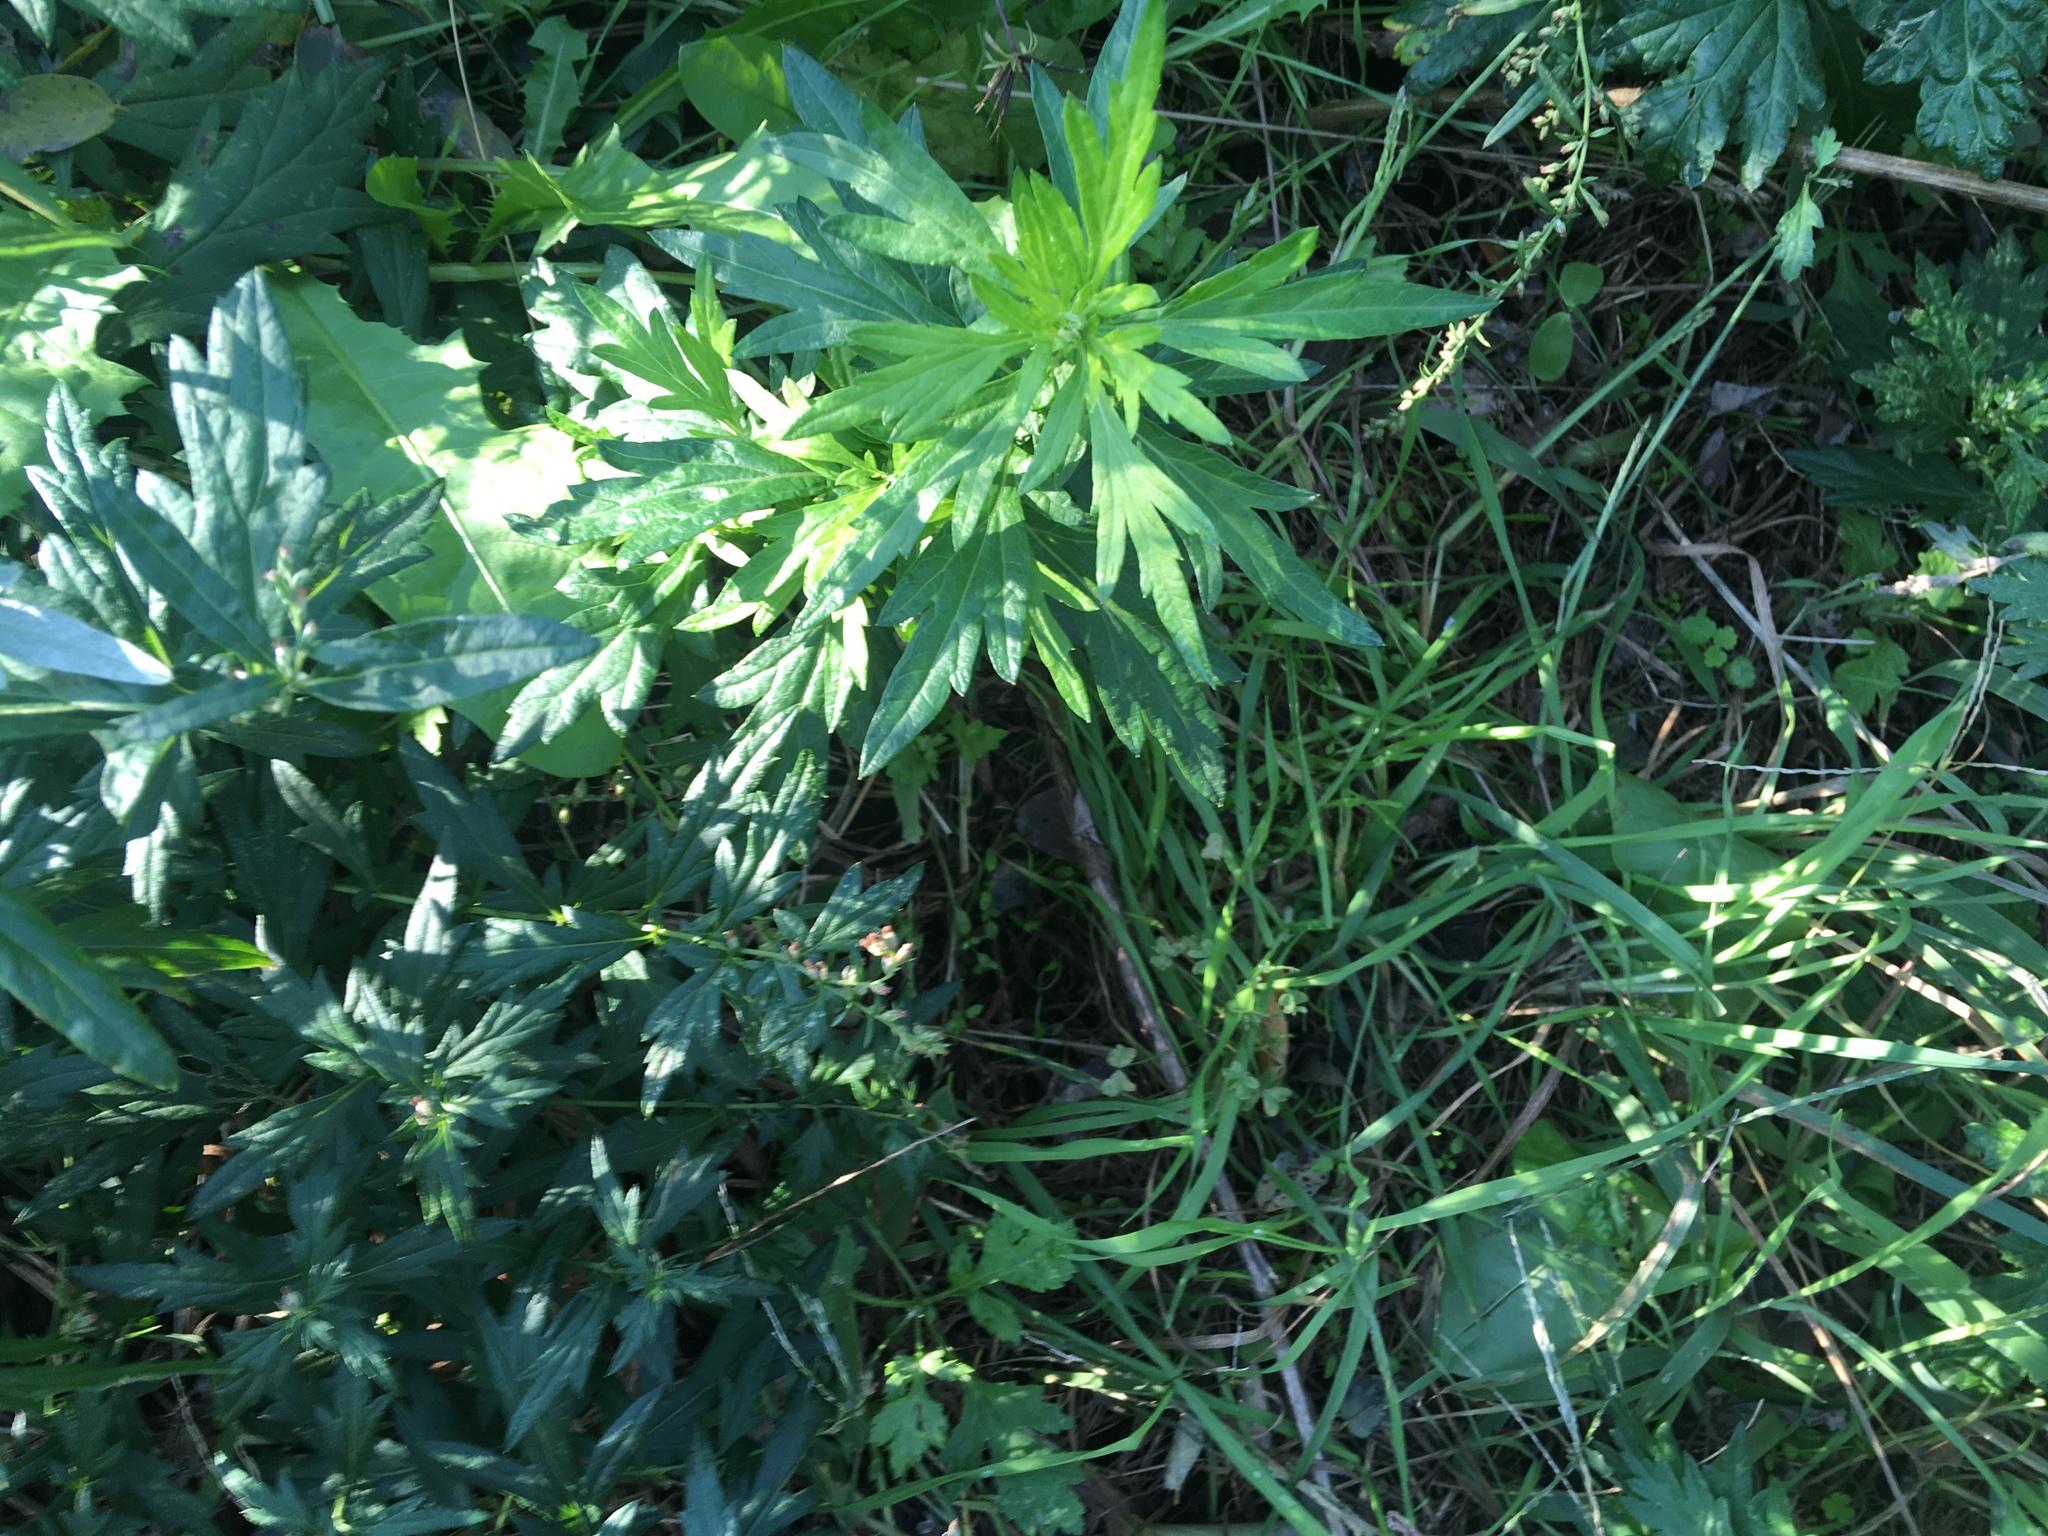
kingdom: Plantae
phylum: Tracheophyta
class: Magnoliopsida
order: Asterales
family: Asteraceae
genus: Artemisia
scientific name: Artemisia vulgaris
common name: Mugwort
